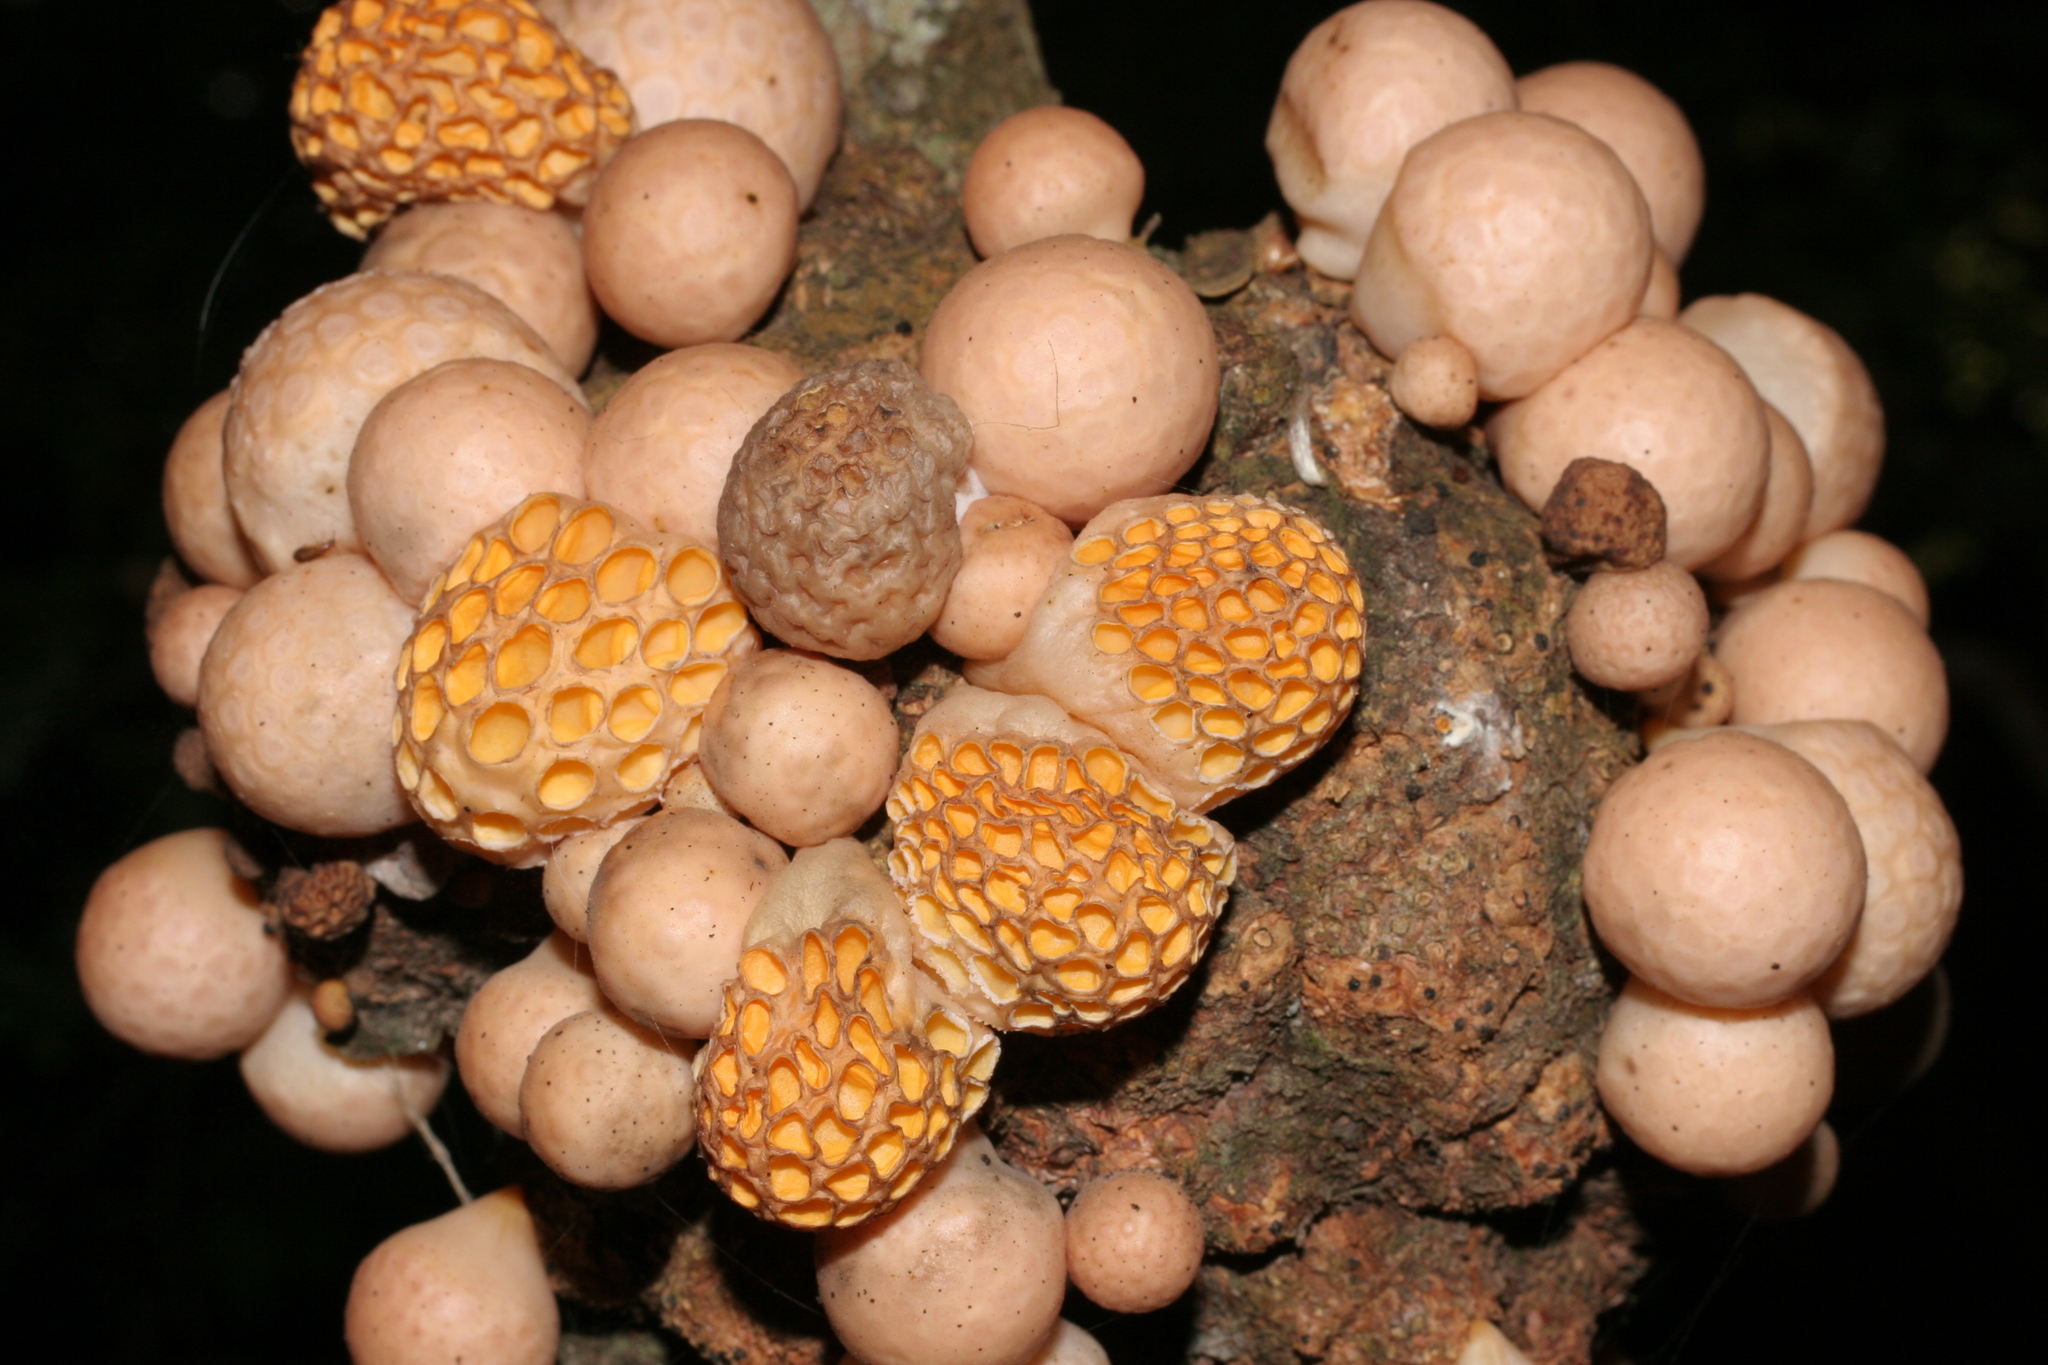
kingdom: Fungi
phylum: Ascomycota
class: Leotiomycetes
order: Cyttariales
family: Cyttariaceae
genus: Cyttaria
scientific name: Cyttaria gunnii
